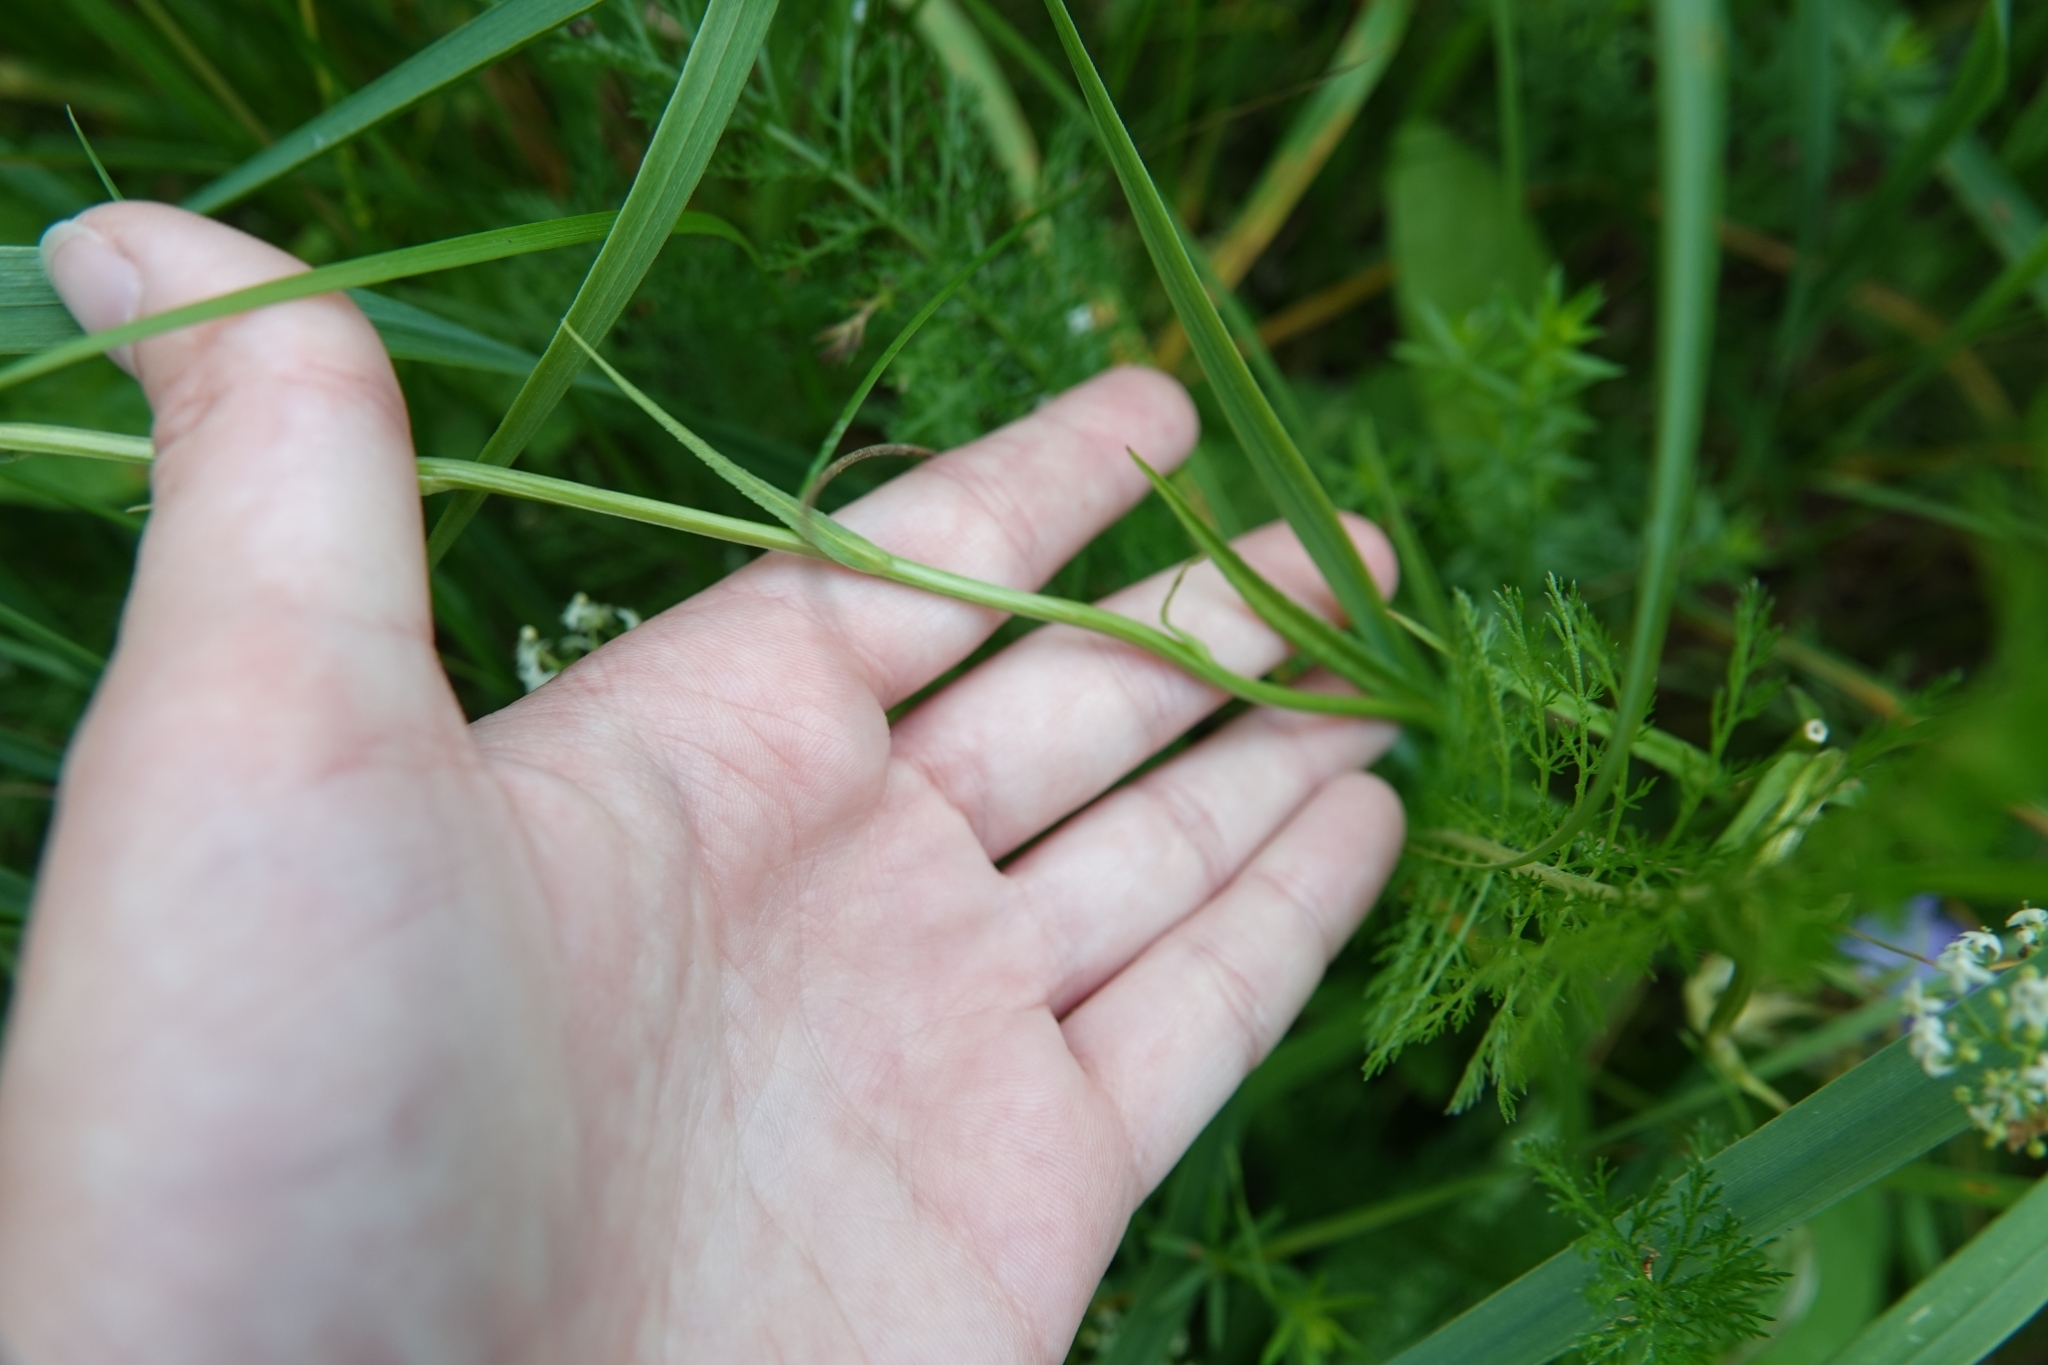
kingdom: Plantae
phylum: Tracheophyta
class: Magnoliopsida
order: Asterales
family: Campanulaceae
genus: Campanula
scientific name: Campanula persicifolia
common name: Peach-leaved bellflower
